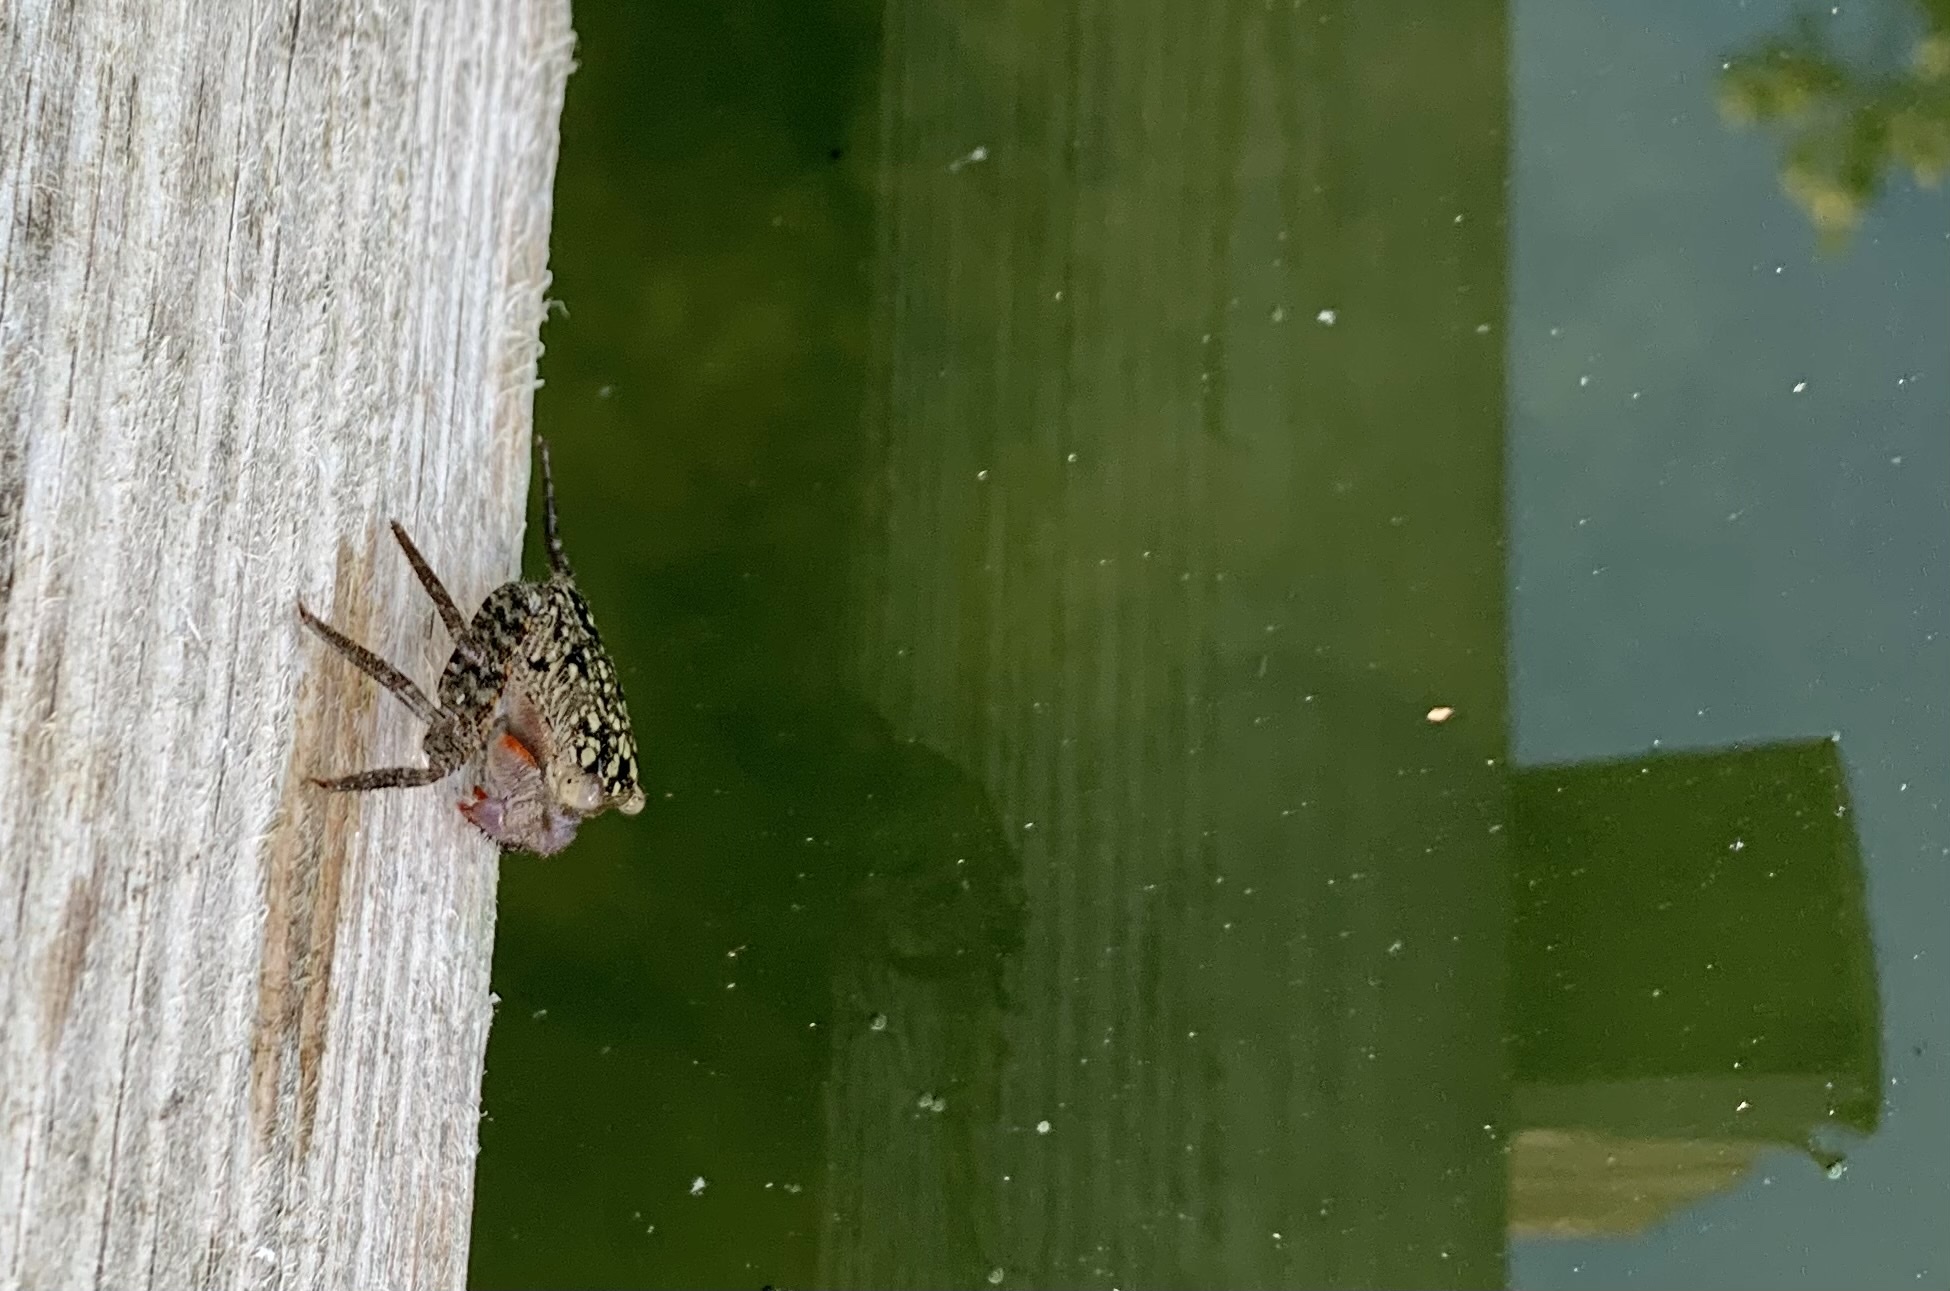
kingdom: Animalia
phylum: Arthropoda
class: Malacostraca
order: Decapoda
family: Sesarmidae
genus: Aratus
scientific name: Aratus pisonii
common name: Mangrove crab
